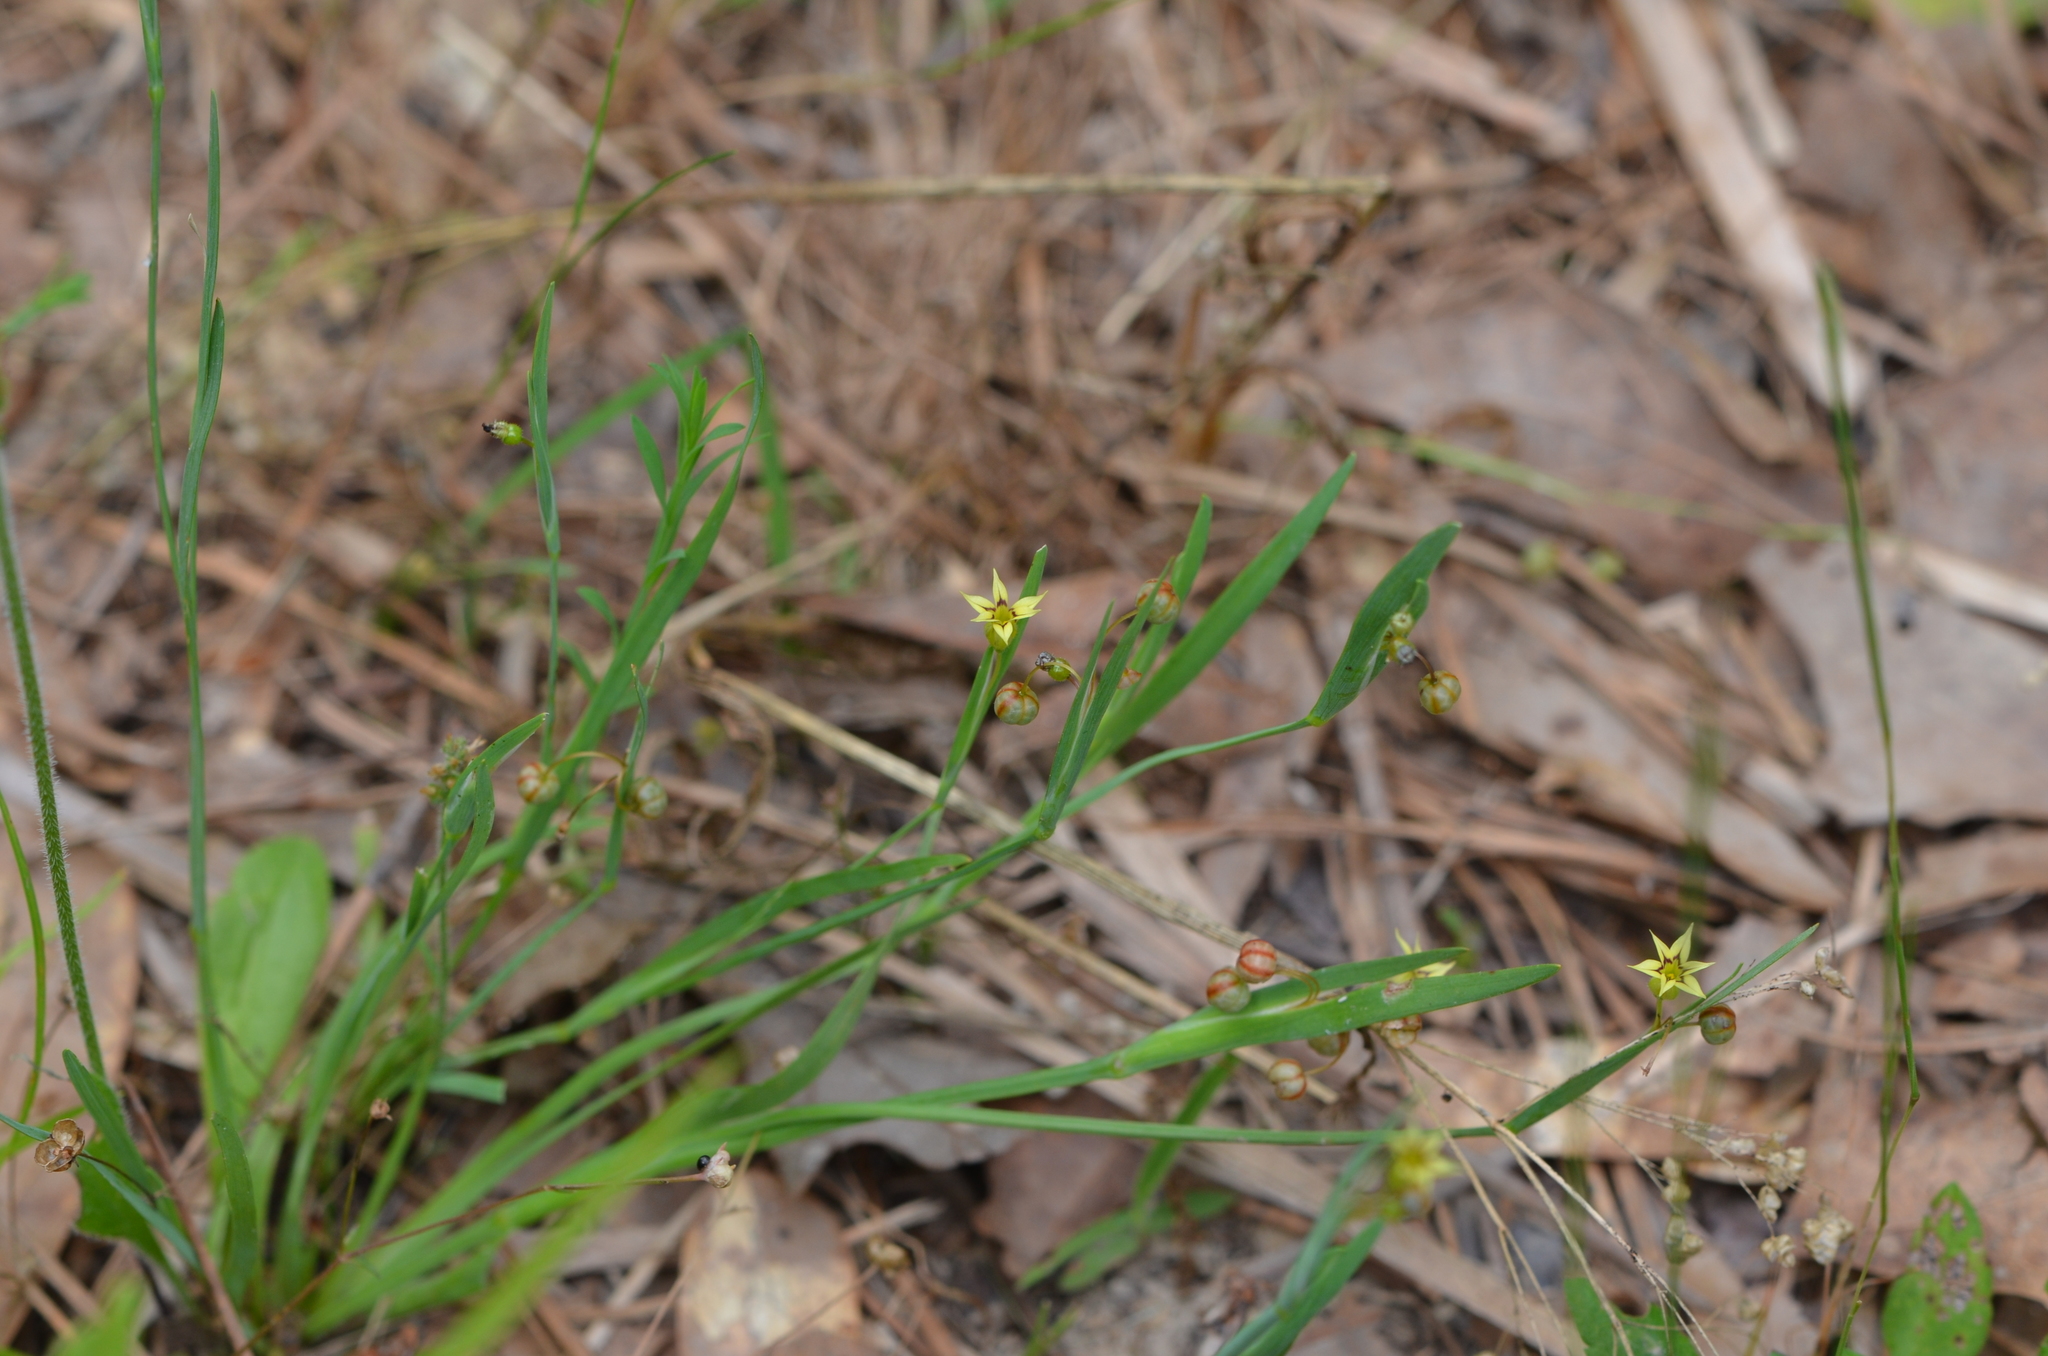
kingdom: Plantae
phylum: Tracheophyta
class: Liliopsida
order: Asparagales
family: Iridaceae
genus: Sisyrinchium
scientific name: Sisyrinchium micranthum
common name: Bermuda pigroot
